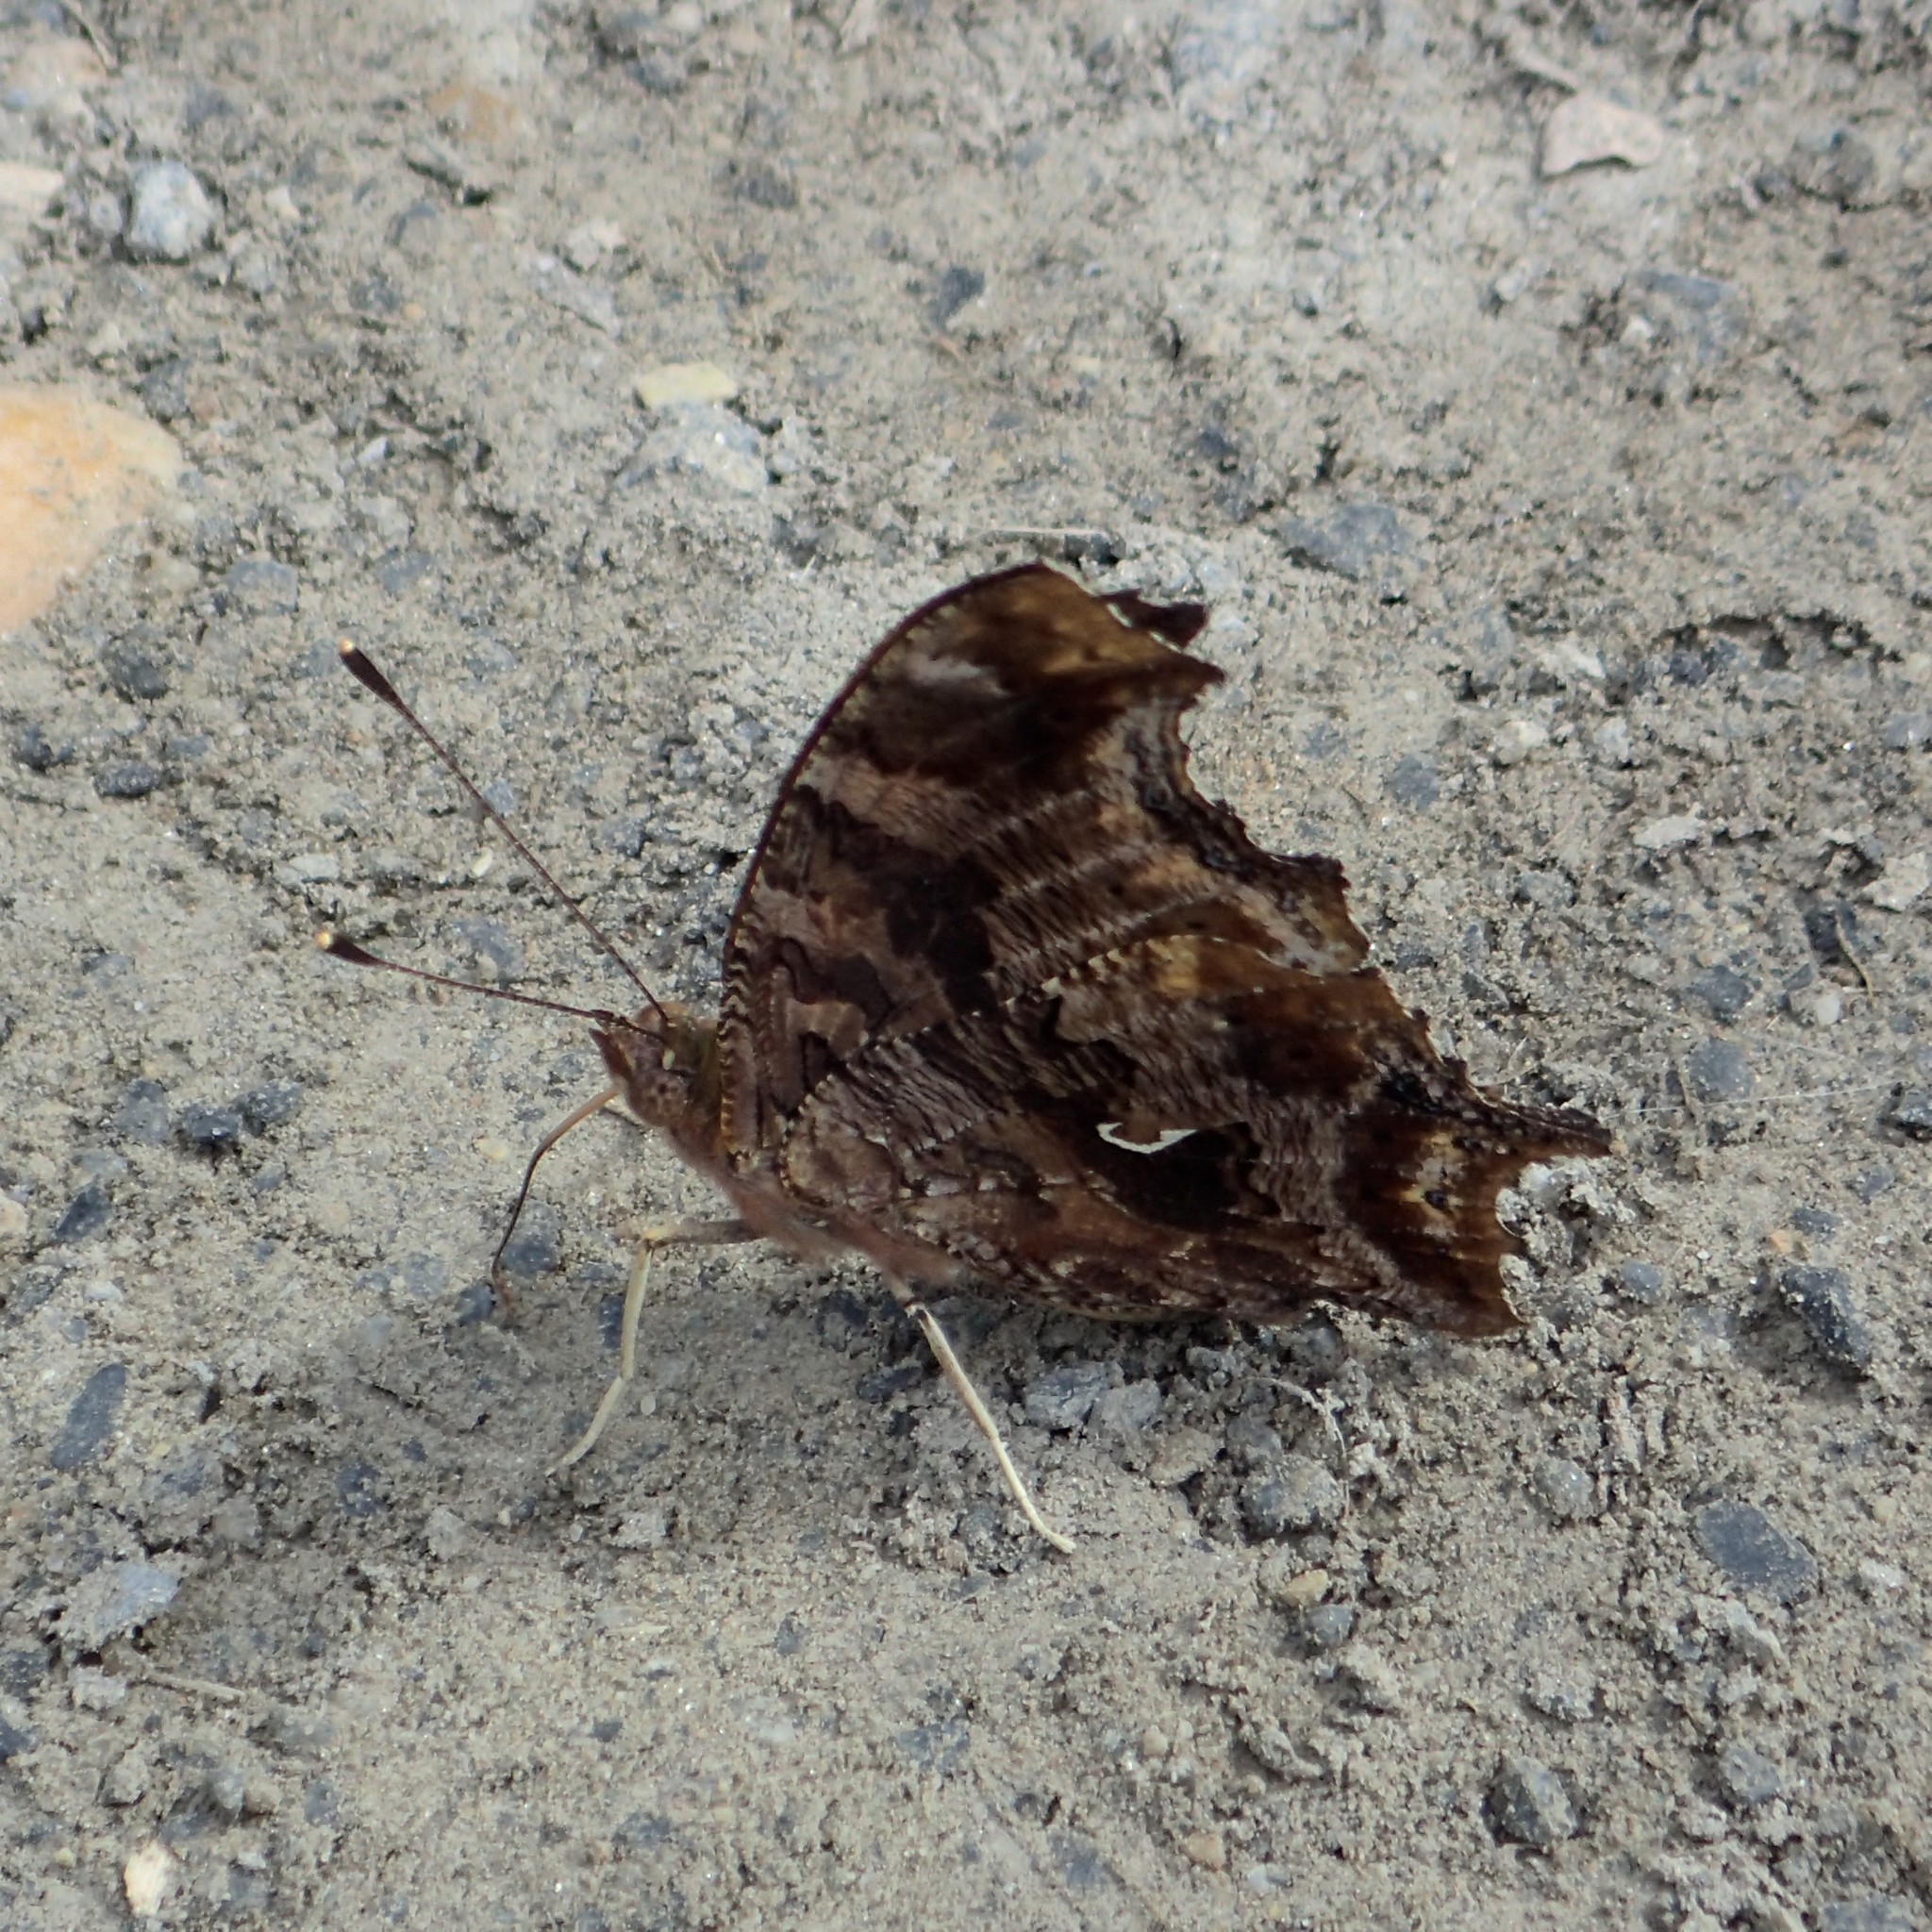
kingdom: Animalia
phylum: Arthropoda
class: Insecta
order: Lepidoptera
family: Nymphalidae
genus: Polygonia
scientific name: Polygonia comma
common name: Eastern comma
